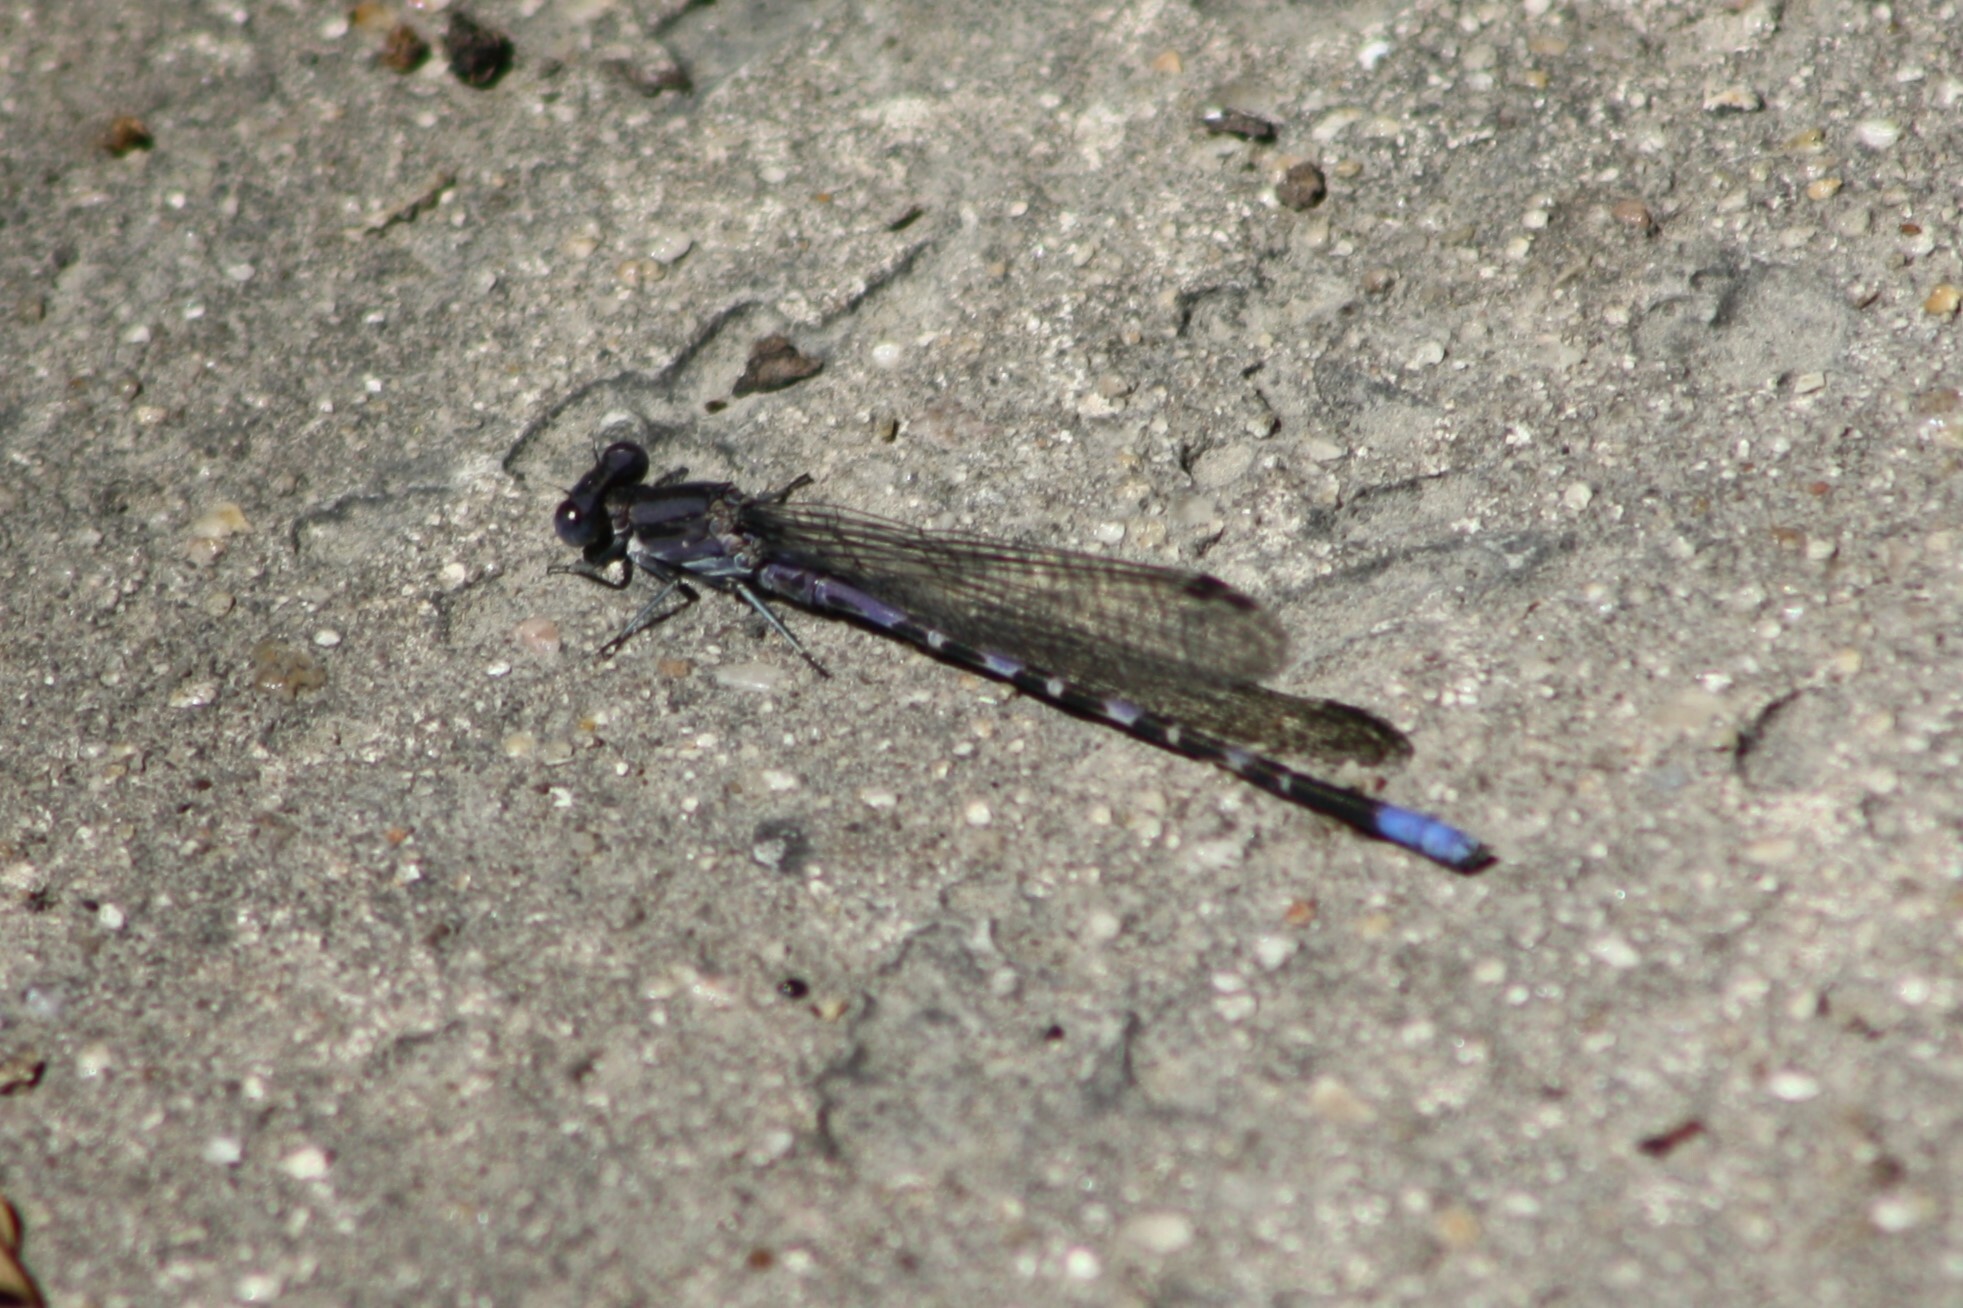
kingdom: Animalia
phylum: Arthropoda
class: Insecta
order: Odonata
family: Coenagrionidae
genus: Argia
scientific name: Argia immunda
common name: Kiowa dancer
